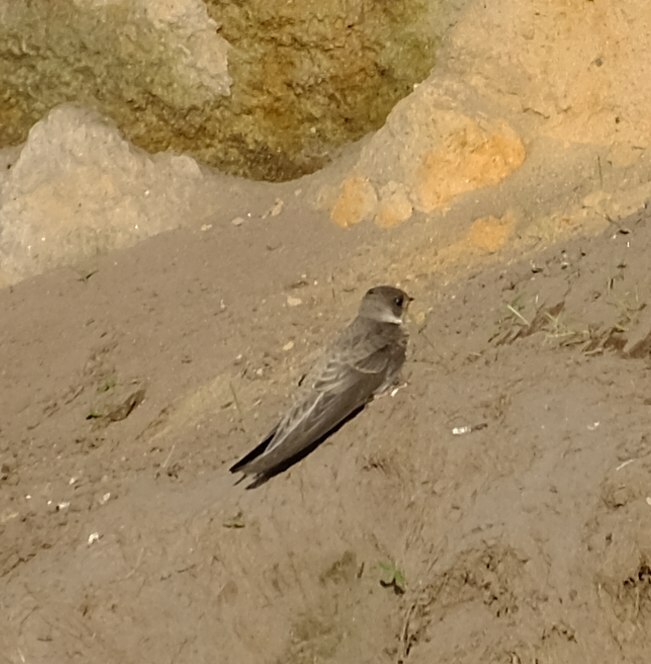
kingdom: Animalia
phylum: Chordata
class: Aves
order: Passeriformes
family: Hirundinidae
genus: Riparia
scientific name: Riparia riparia
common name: Sand martin
